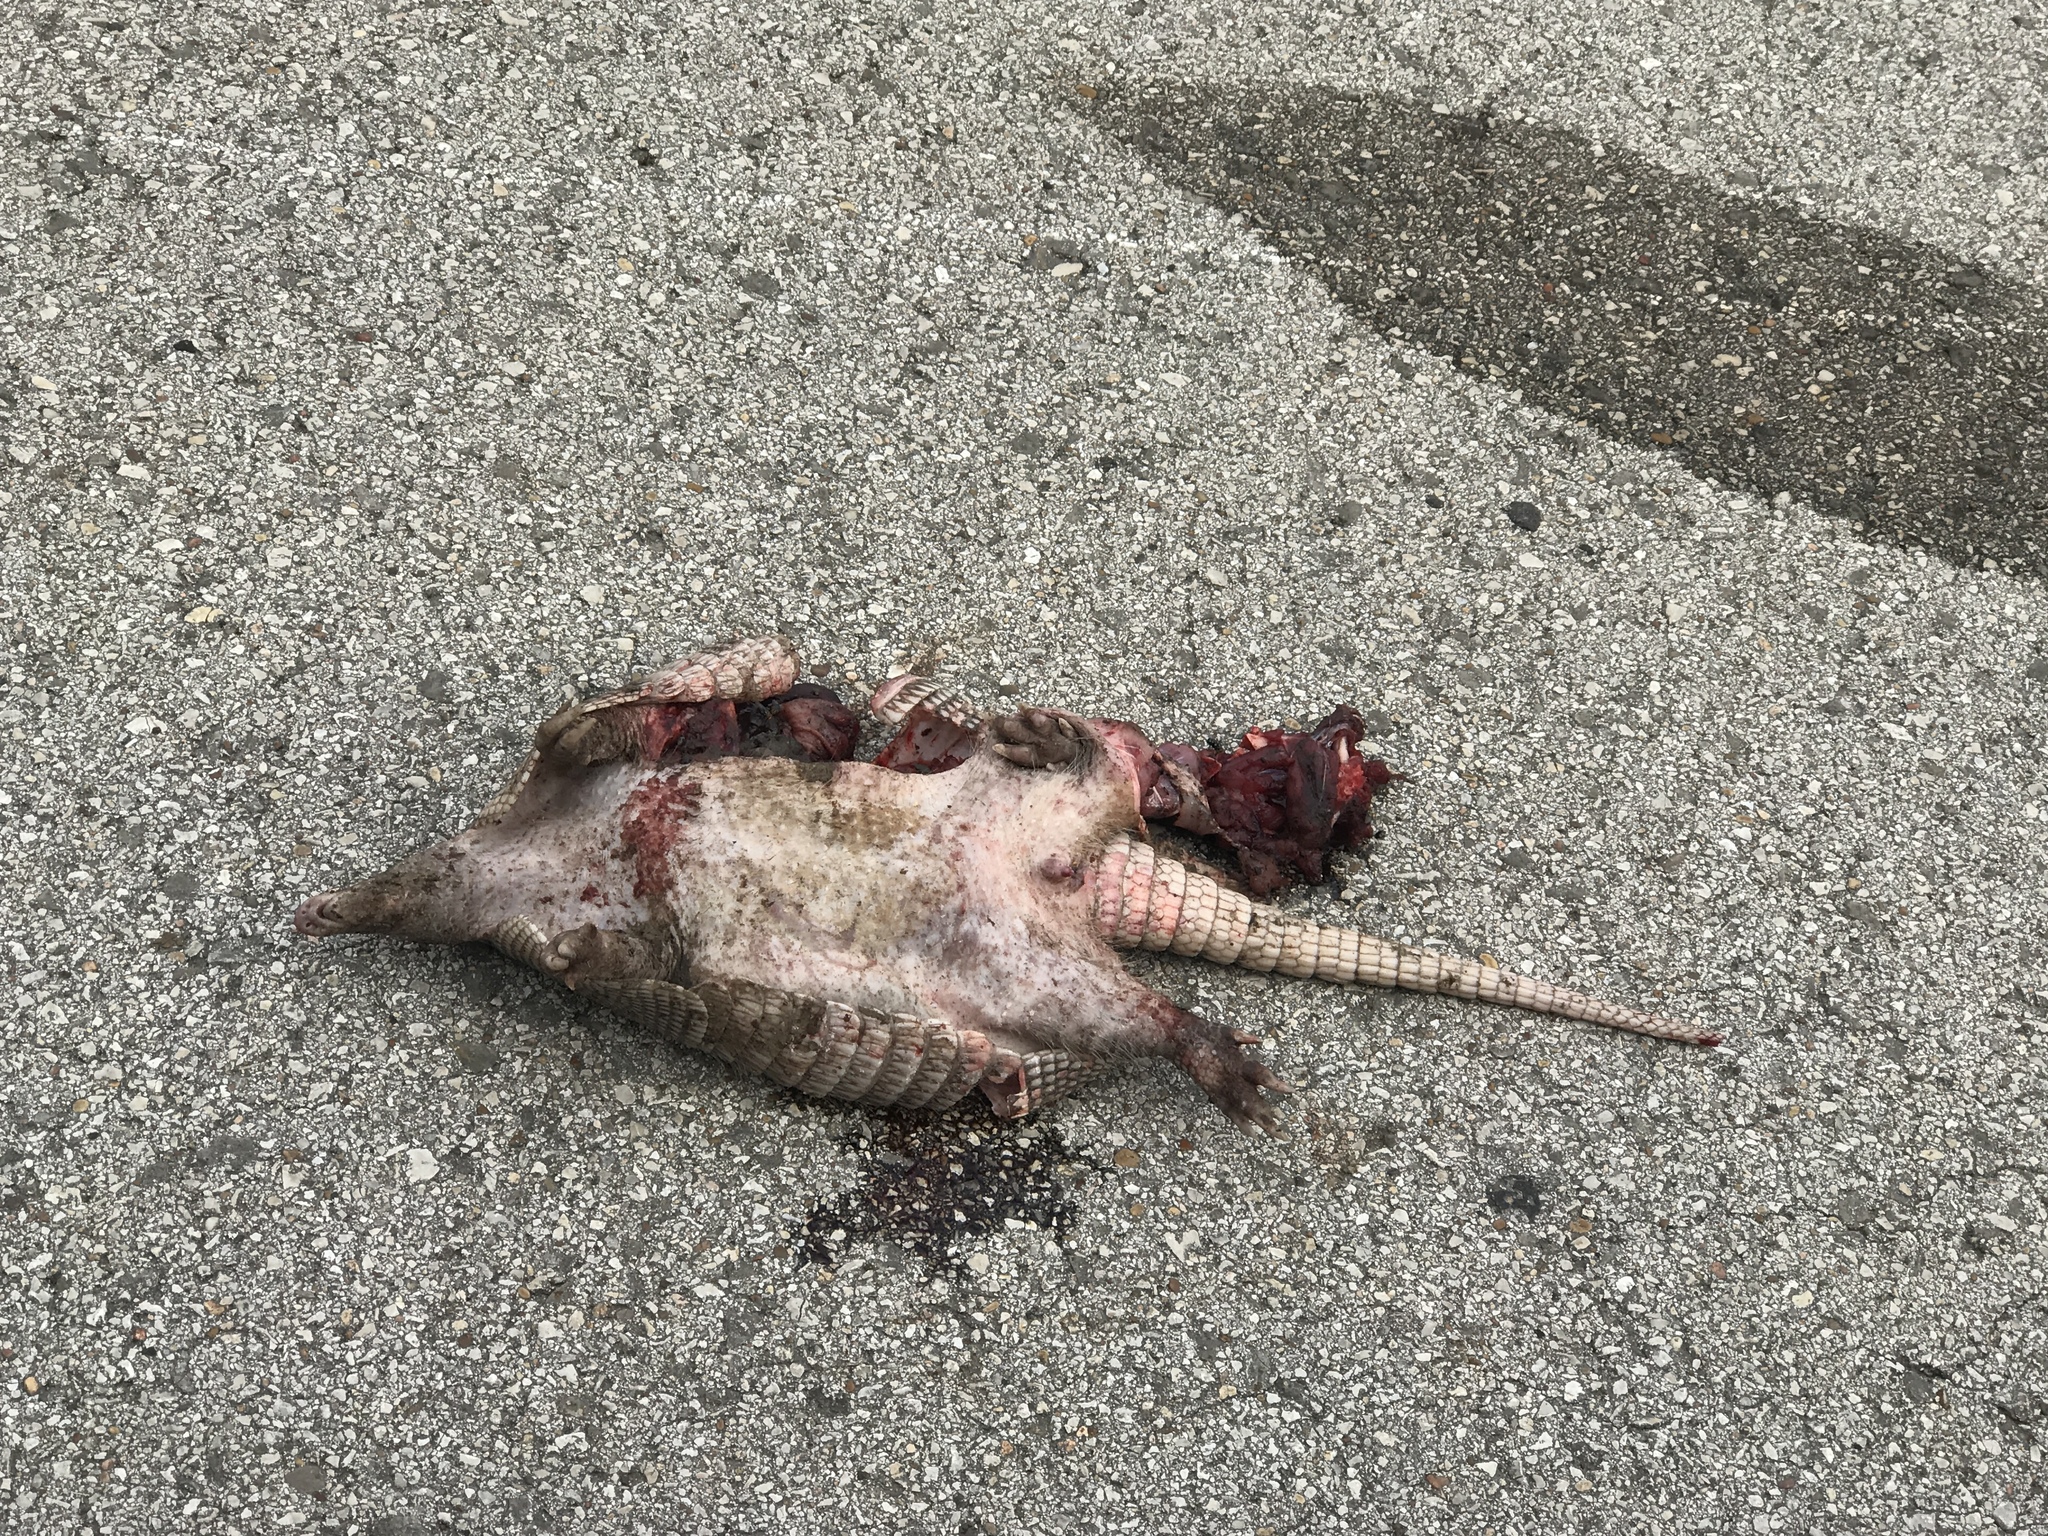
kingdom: Animalia
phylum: Chordata
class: Mammalia
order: Cingulata
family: Dasypodidae
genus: Dasypus
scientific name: Dasypus novemcinctus
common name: Nine-banded armadillo
